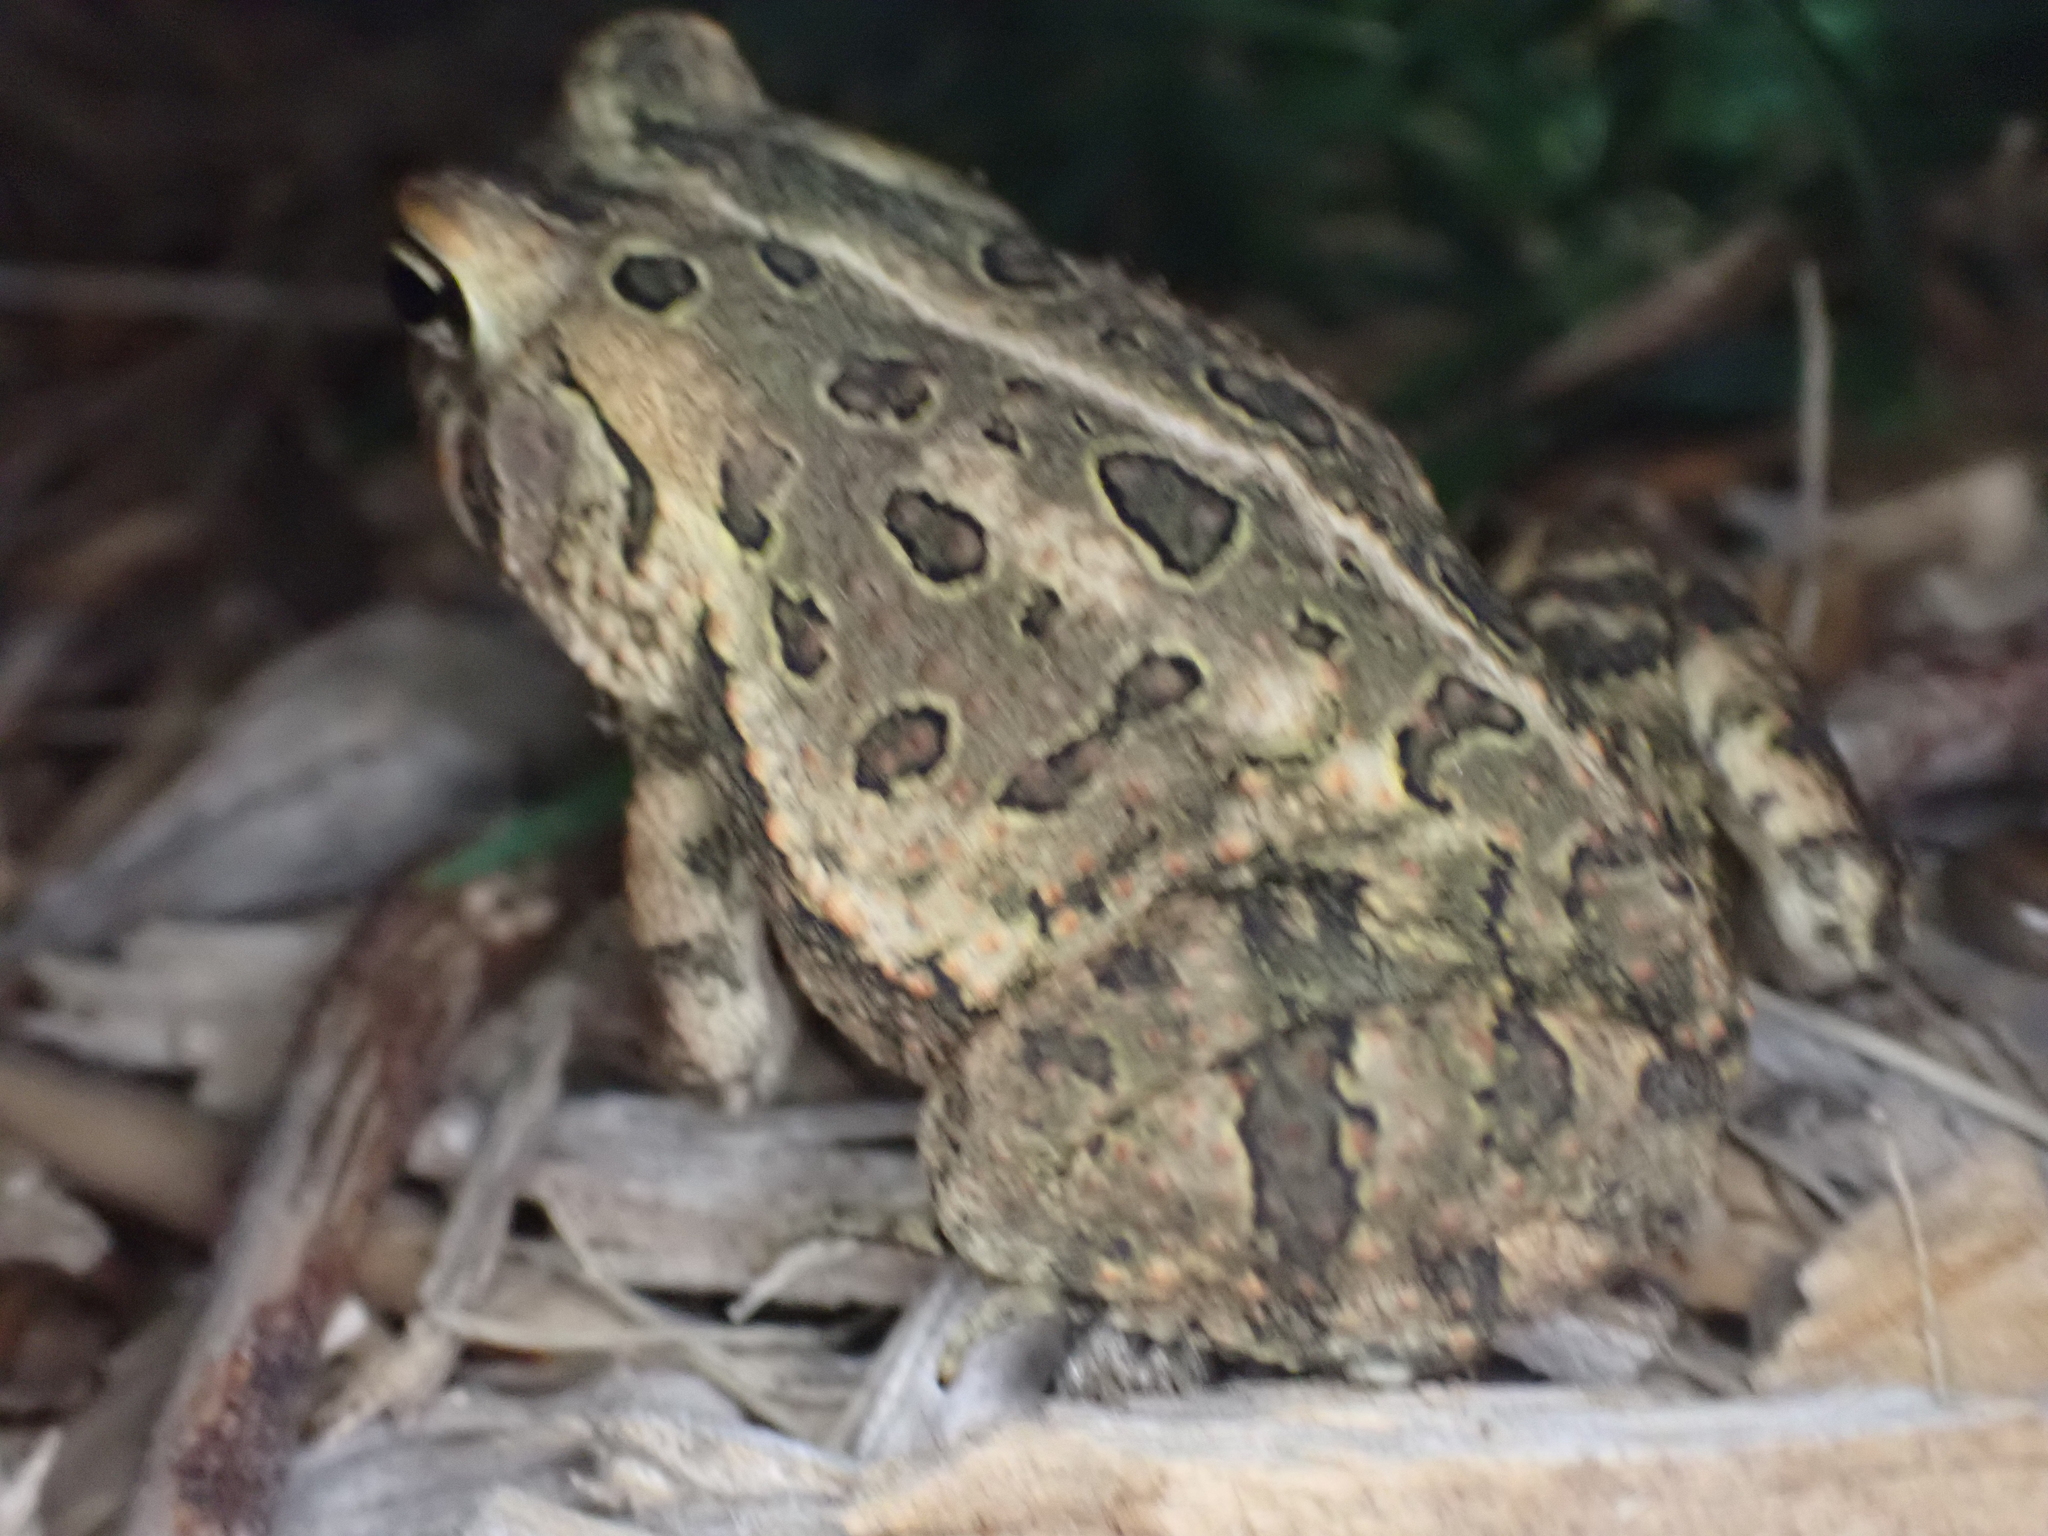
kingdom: Animalia
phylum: Chordata
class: Amphibia
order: Anura
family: Bufonidae
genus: Anaxyrus
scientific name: Anaxyrus fowleri
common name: Fowler's toad
